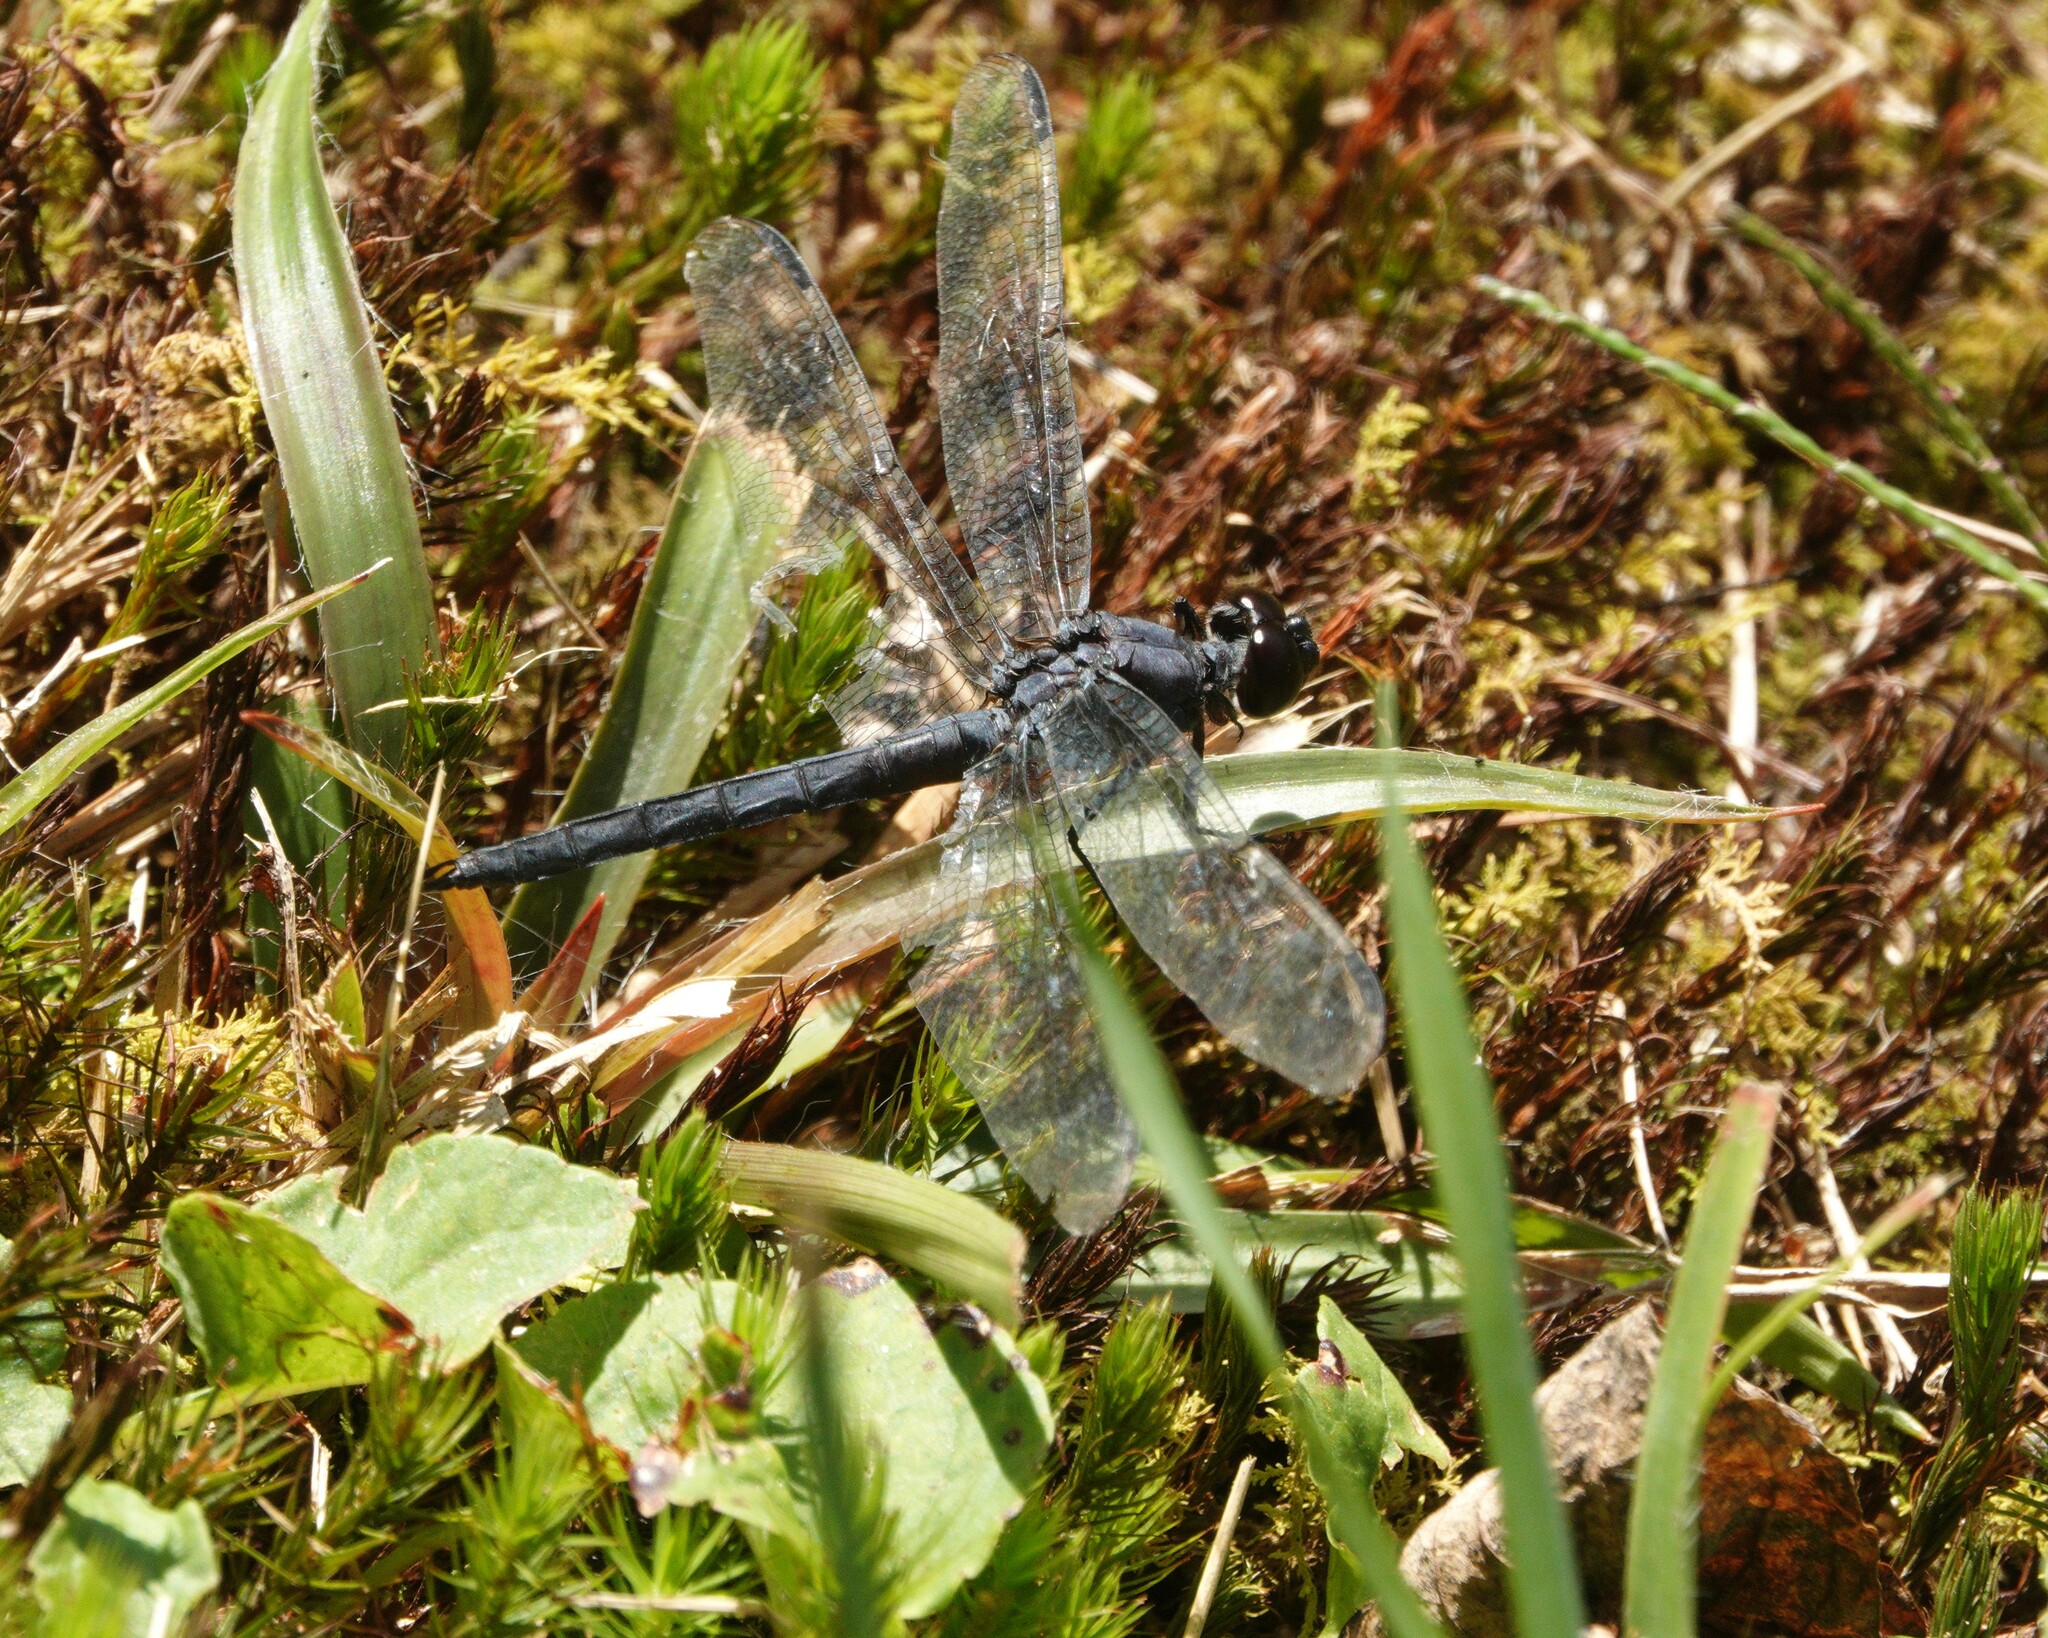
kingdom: Animalia
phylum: Arthropoda
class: Insecta
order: Odonata
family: Libellulidae
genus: Libellula
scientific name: Libellula incesta
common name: Slaty skimmer
